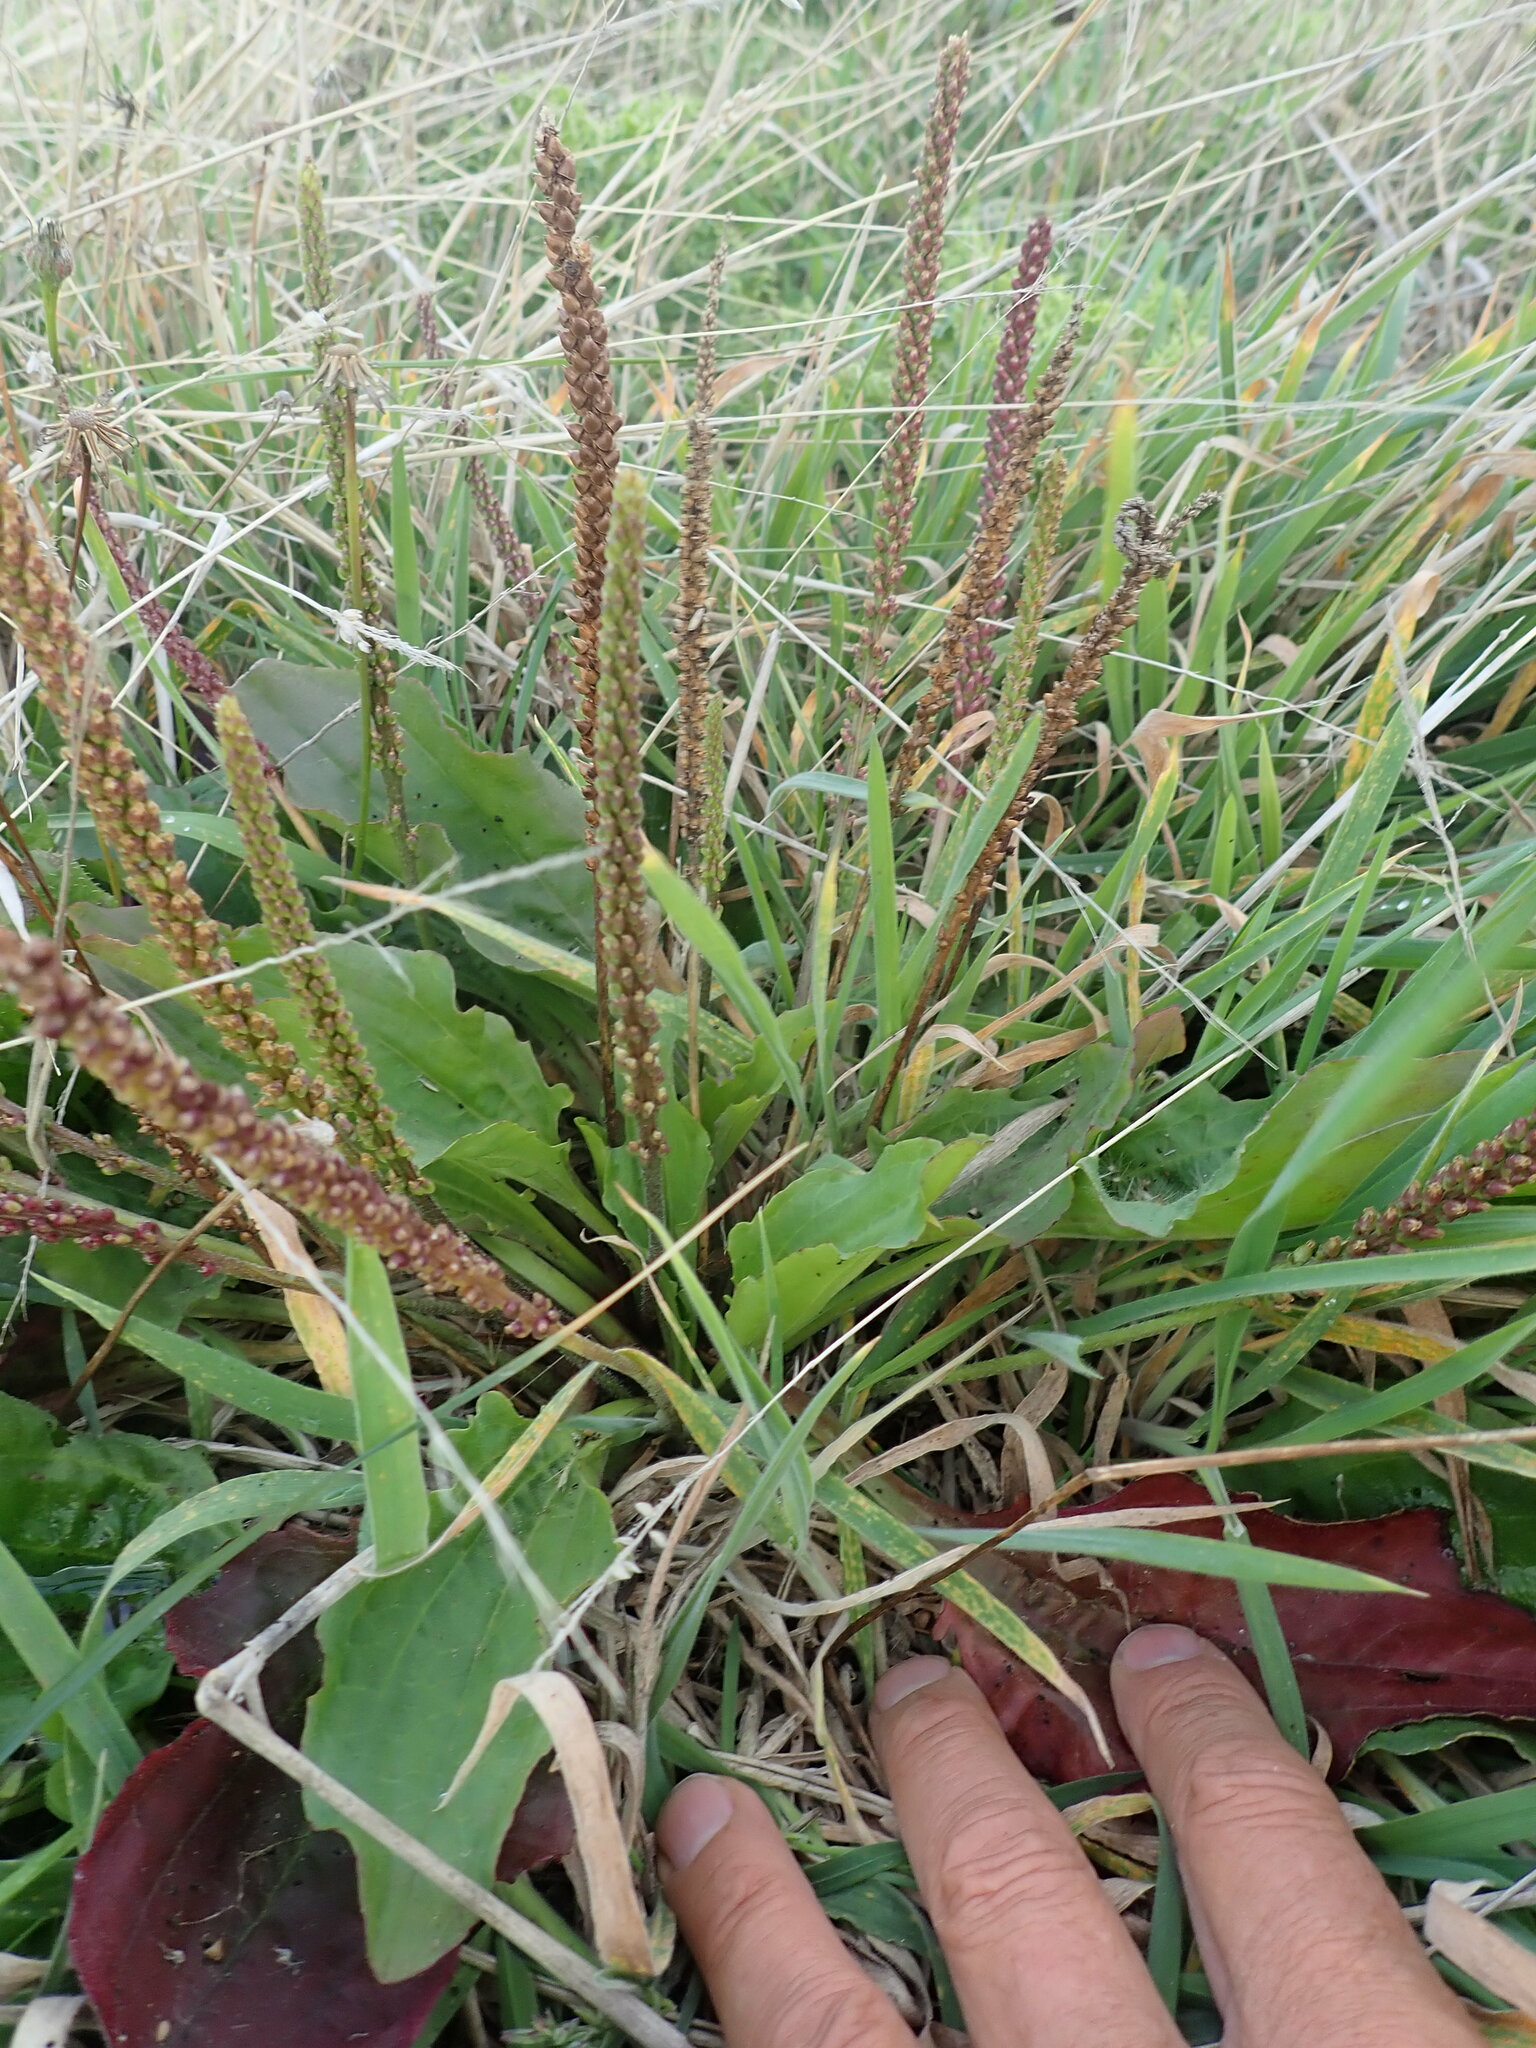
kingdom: Plantae
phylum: Tracheophyta
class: Magnoliopsida
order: Lamiales
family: Plantaginaceae
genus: Plantago
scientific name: Plantago major
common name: Common plantain
